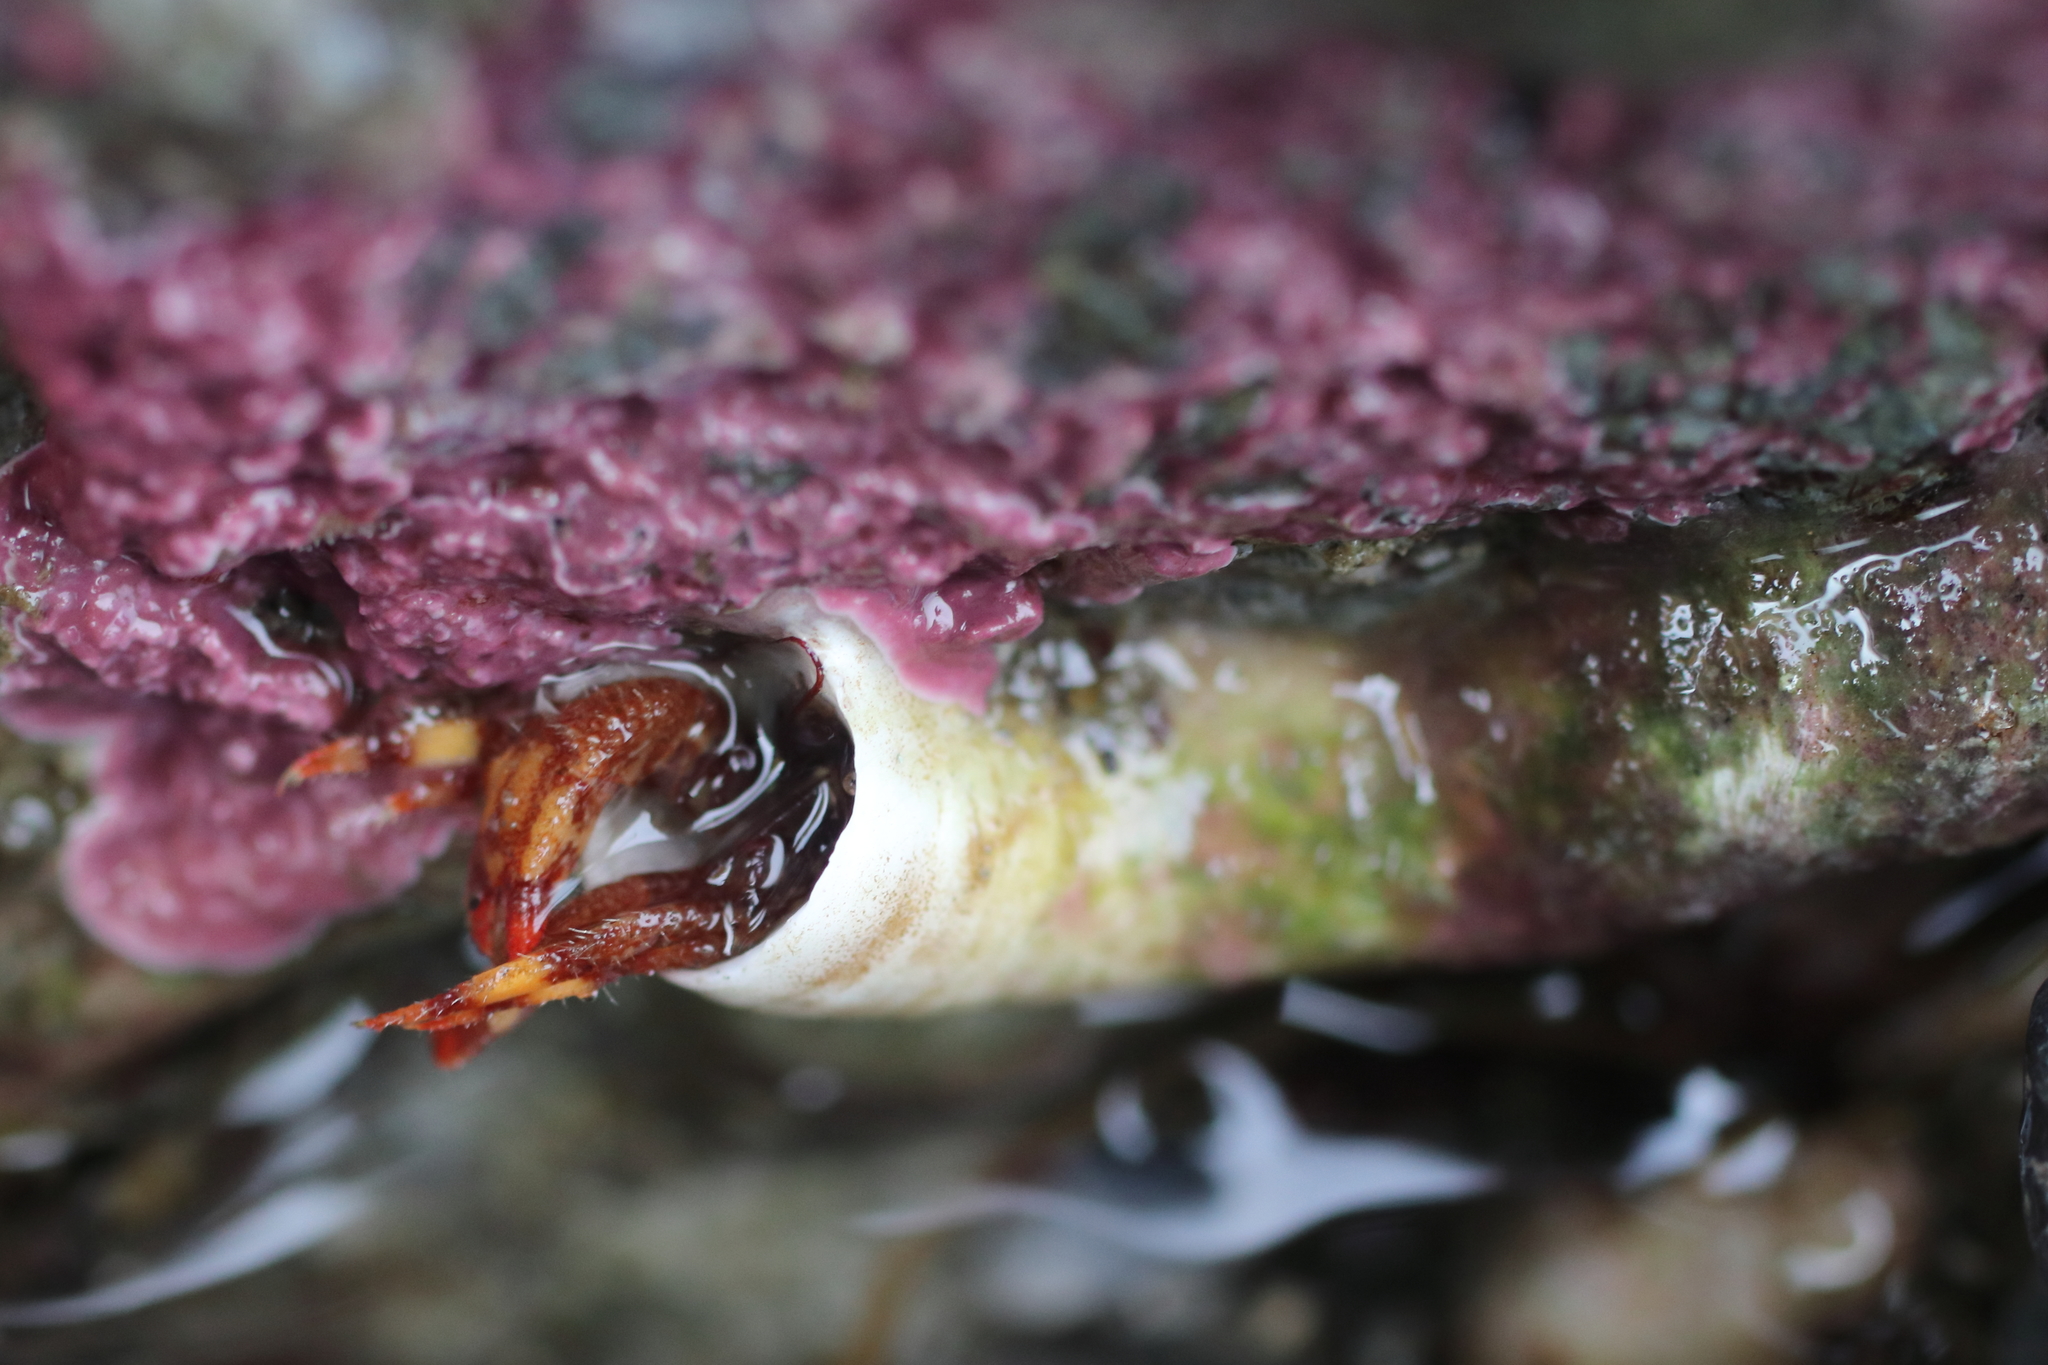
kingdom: Animalia
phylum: Arthropoda
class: Malacostraca
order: Decapoda
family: Paguridae
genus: Discorsopagurus
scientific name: Discorsopagurus schmitti
